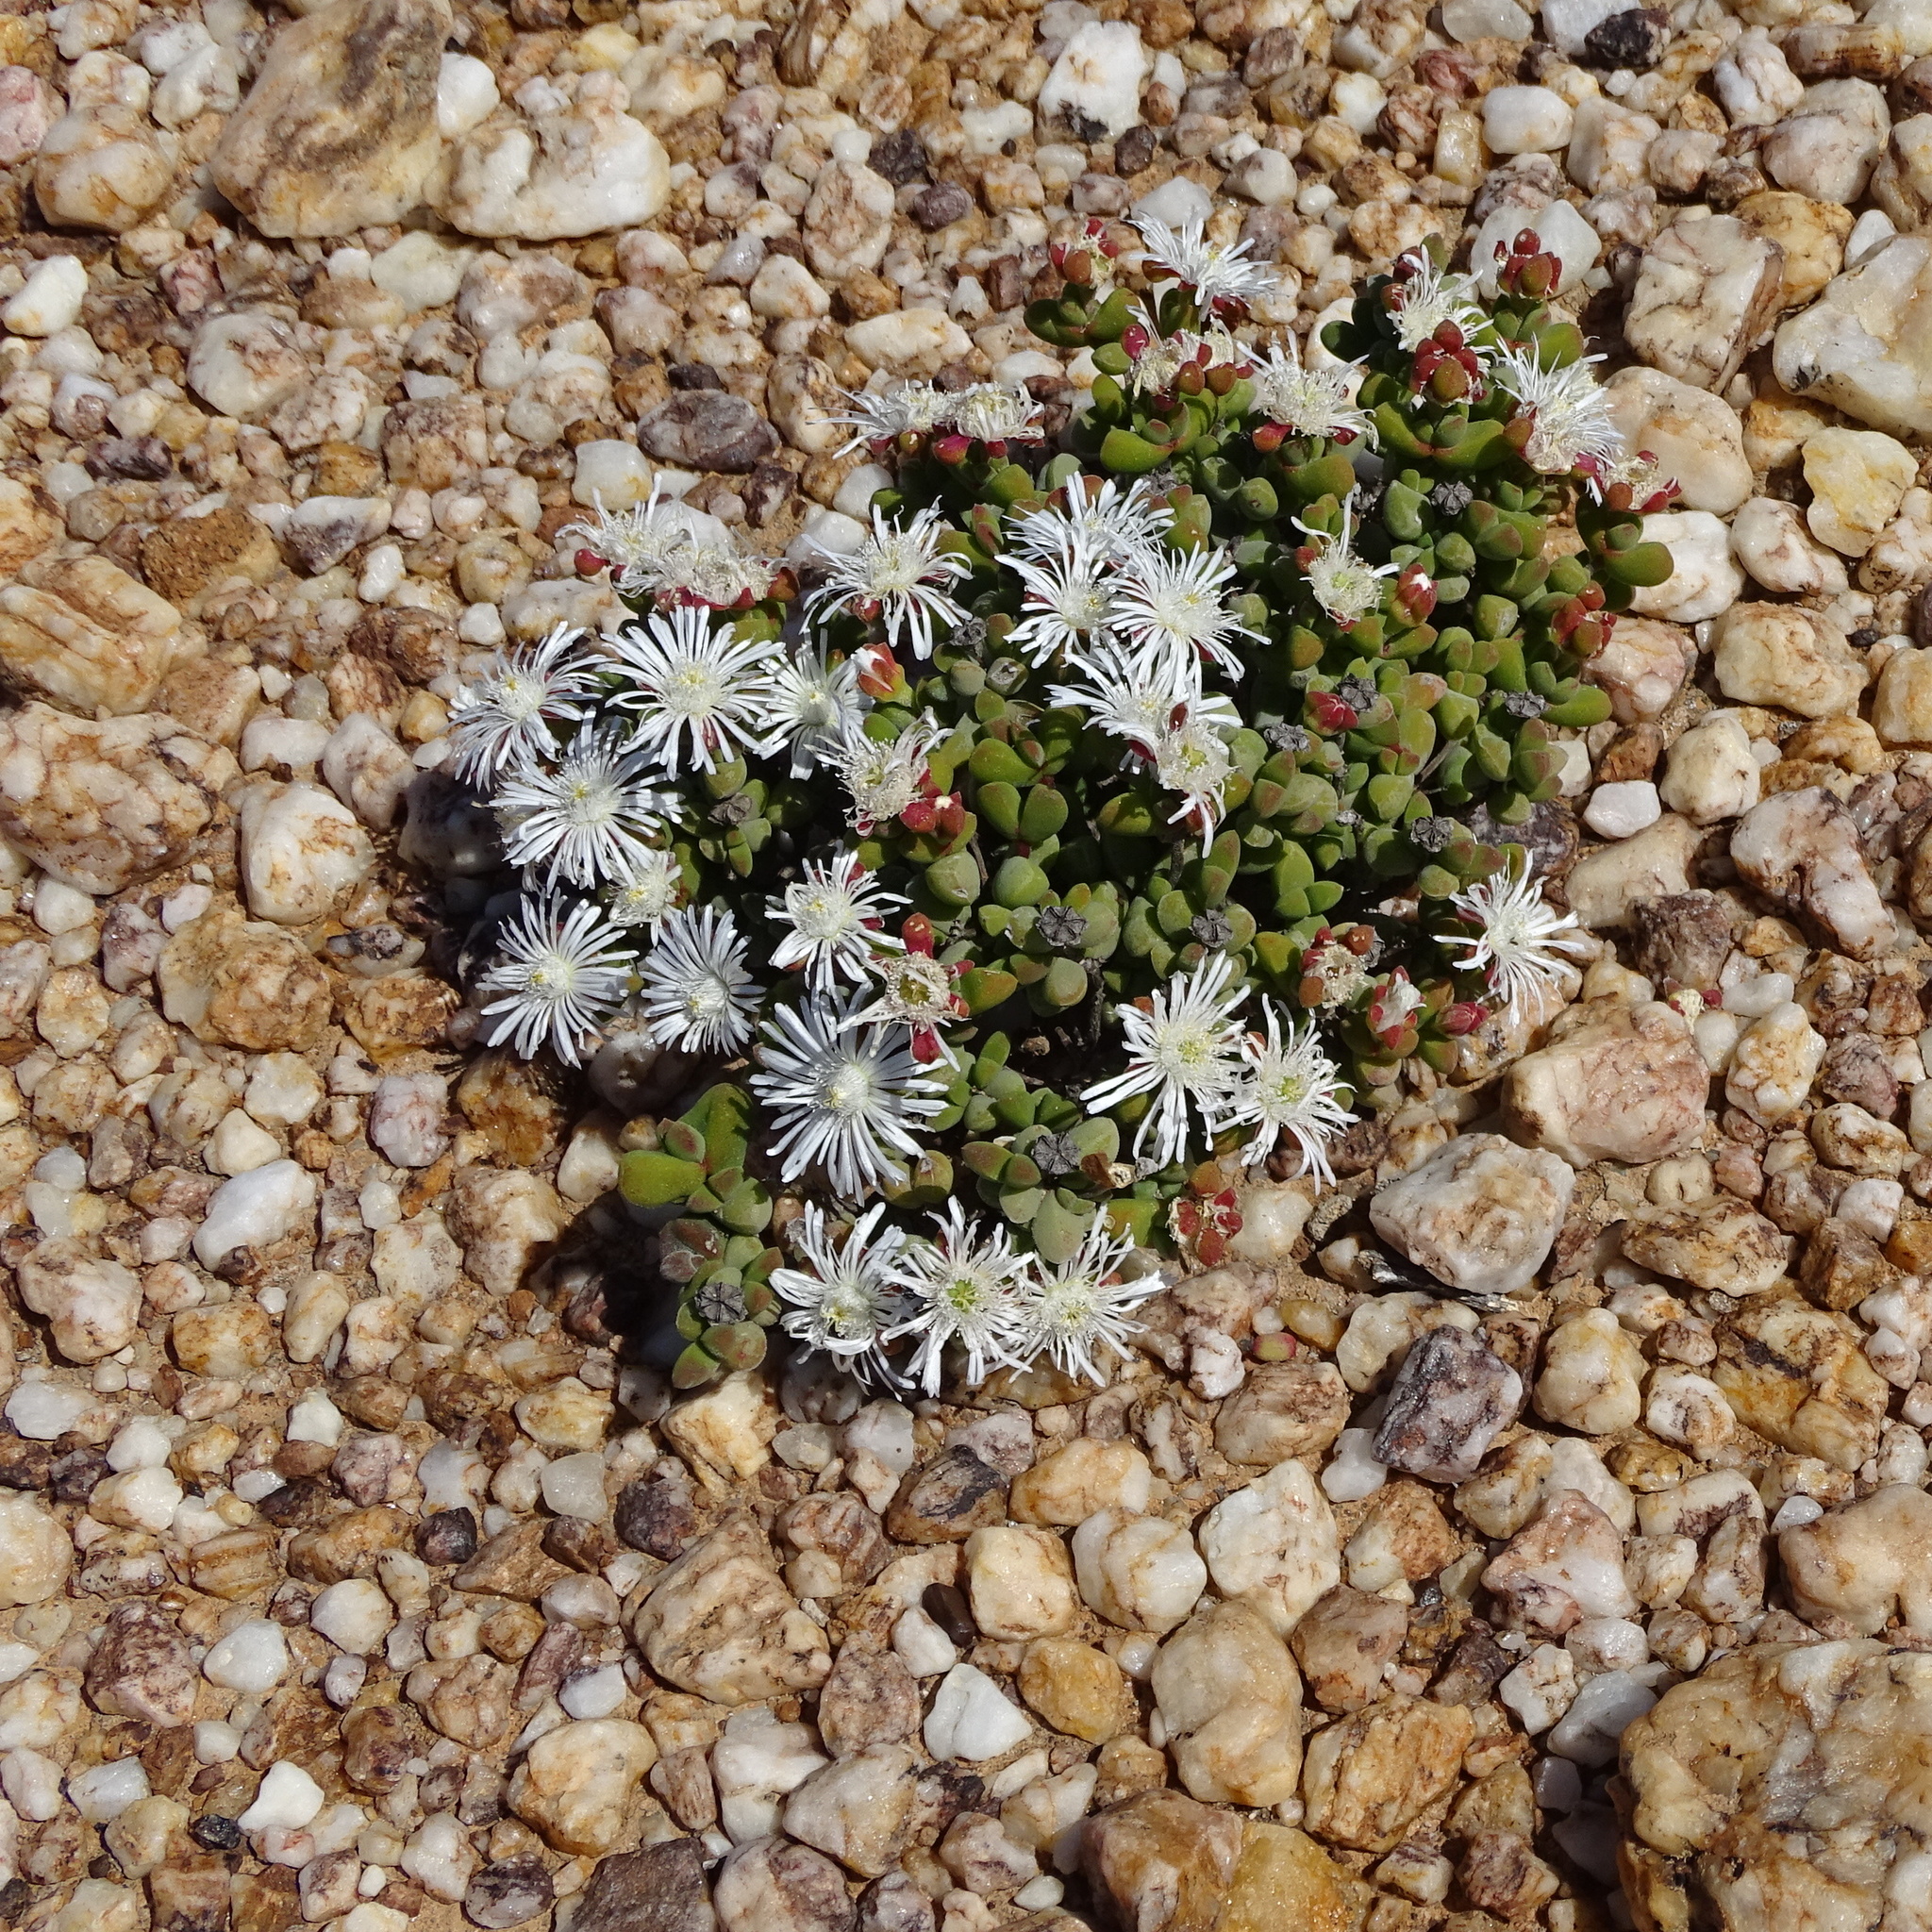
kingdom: Plantae
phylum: Tracheophyta
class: Magnoliopsida
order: Caryophyllales
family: Aizoaceae
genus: Drosanthemopsis
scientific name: Drosanthemopsis diversifolia
